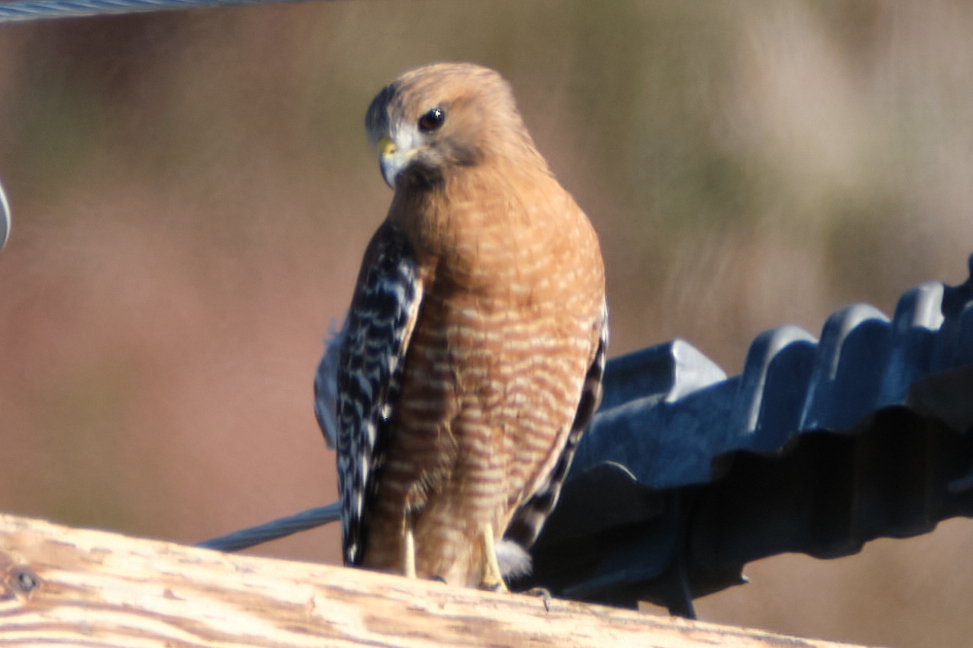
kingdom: Animalia
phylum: Chordata
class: Aves
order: Accipitriformes
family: Accipitridae
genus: Buteo
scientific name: Buteo lineatus
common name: Red-shouldered hawk
